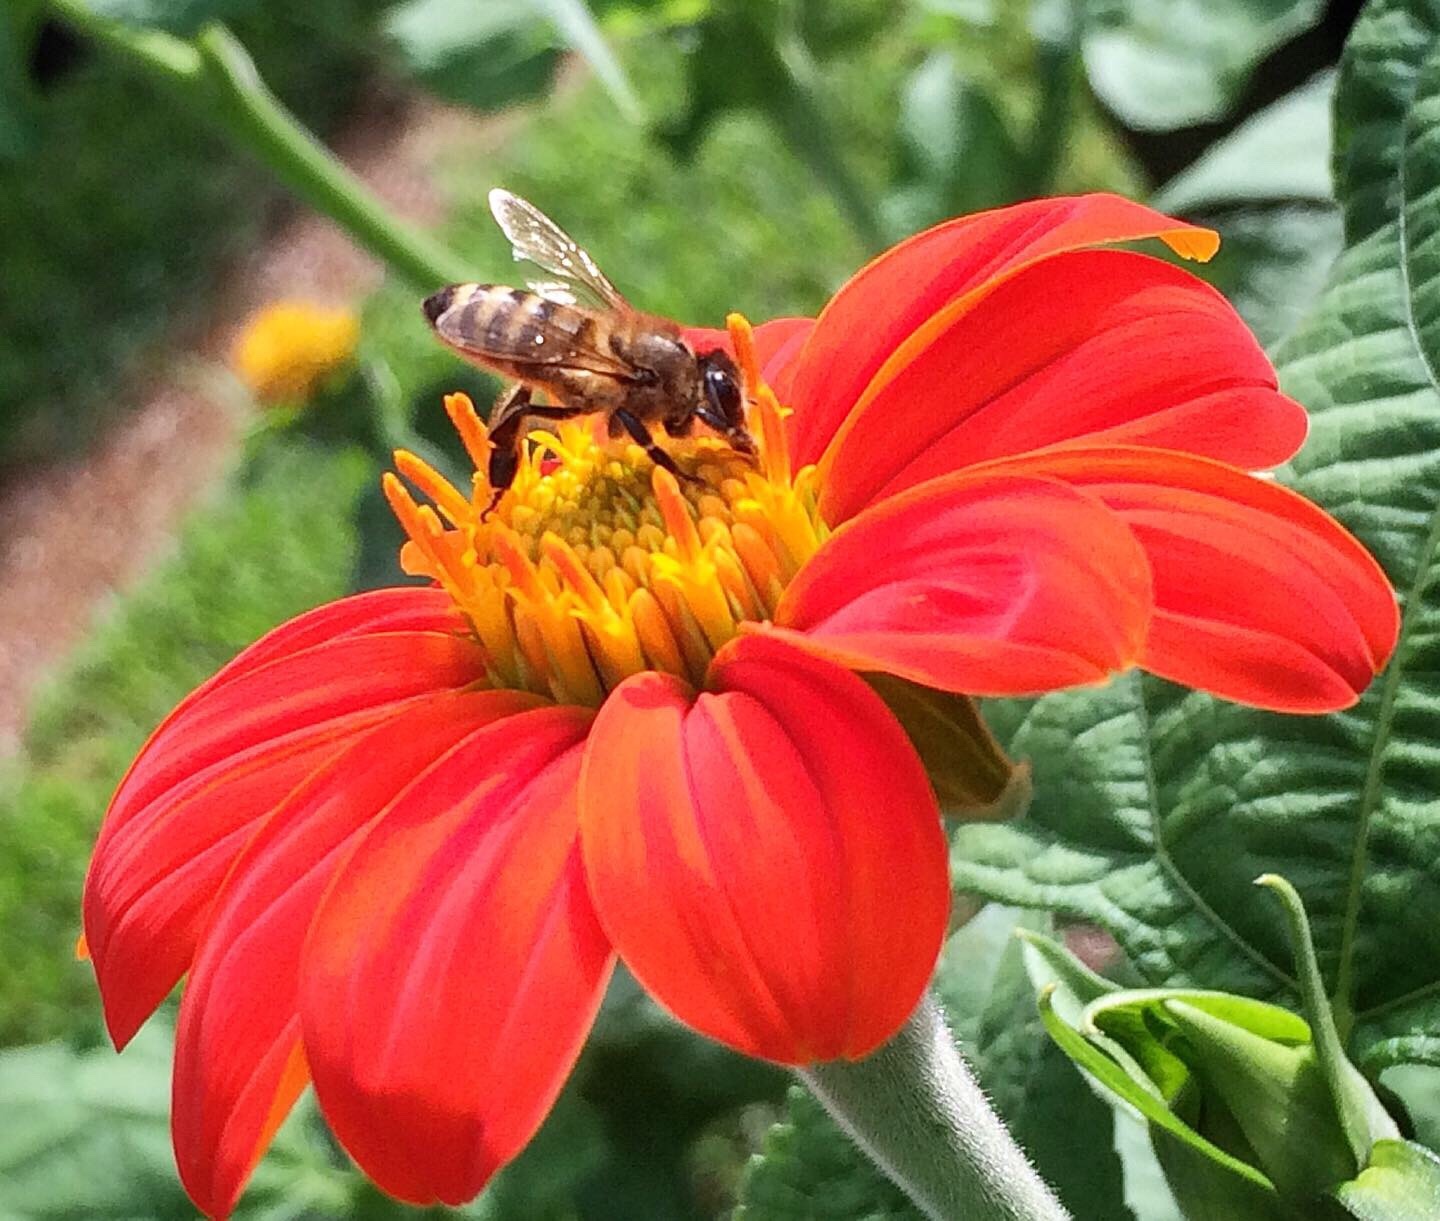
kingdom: Plantae
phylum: Tracheophyta
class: Magnoliopsida
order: Asterales
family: Asteraceae
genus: Tithonia
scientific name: Tithonia rotundifolia
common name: Sunflower
